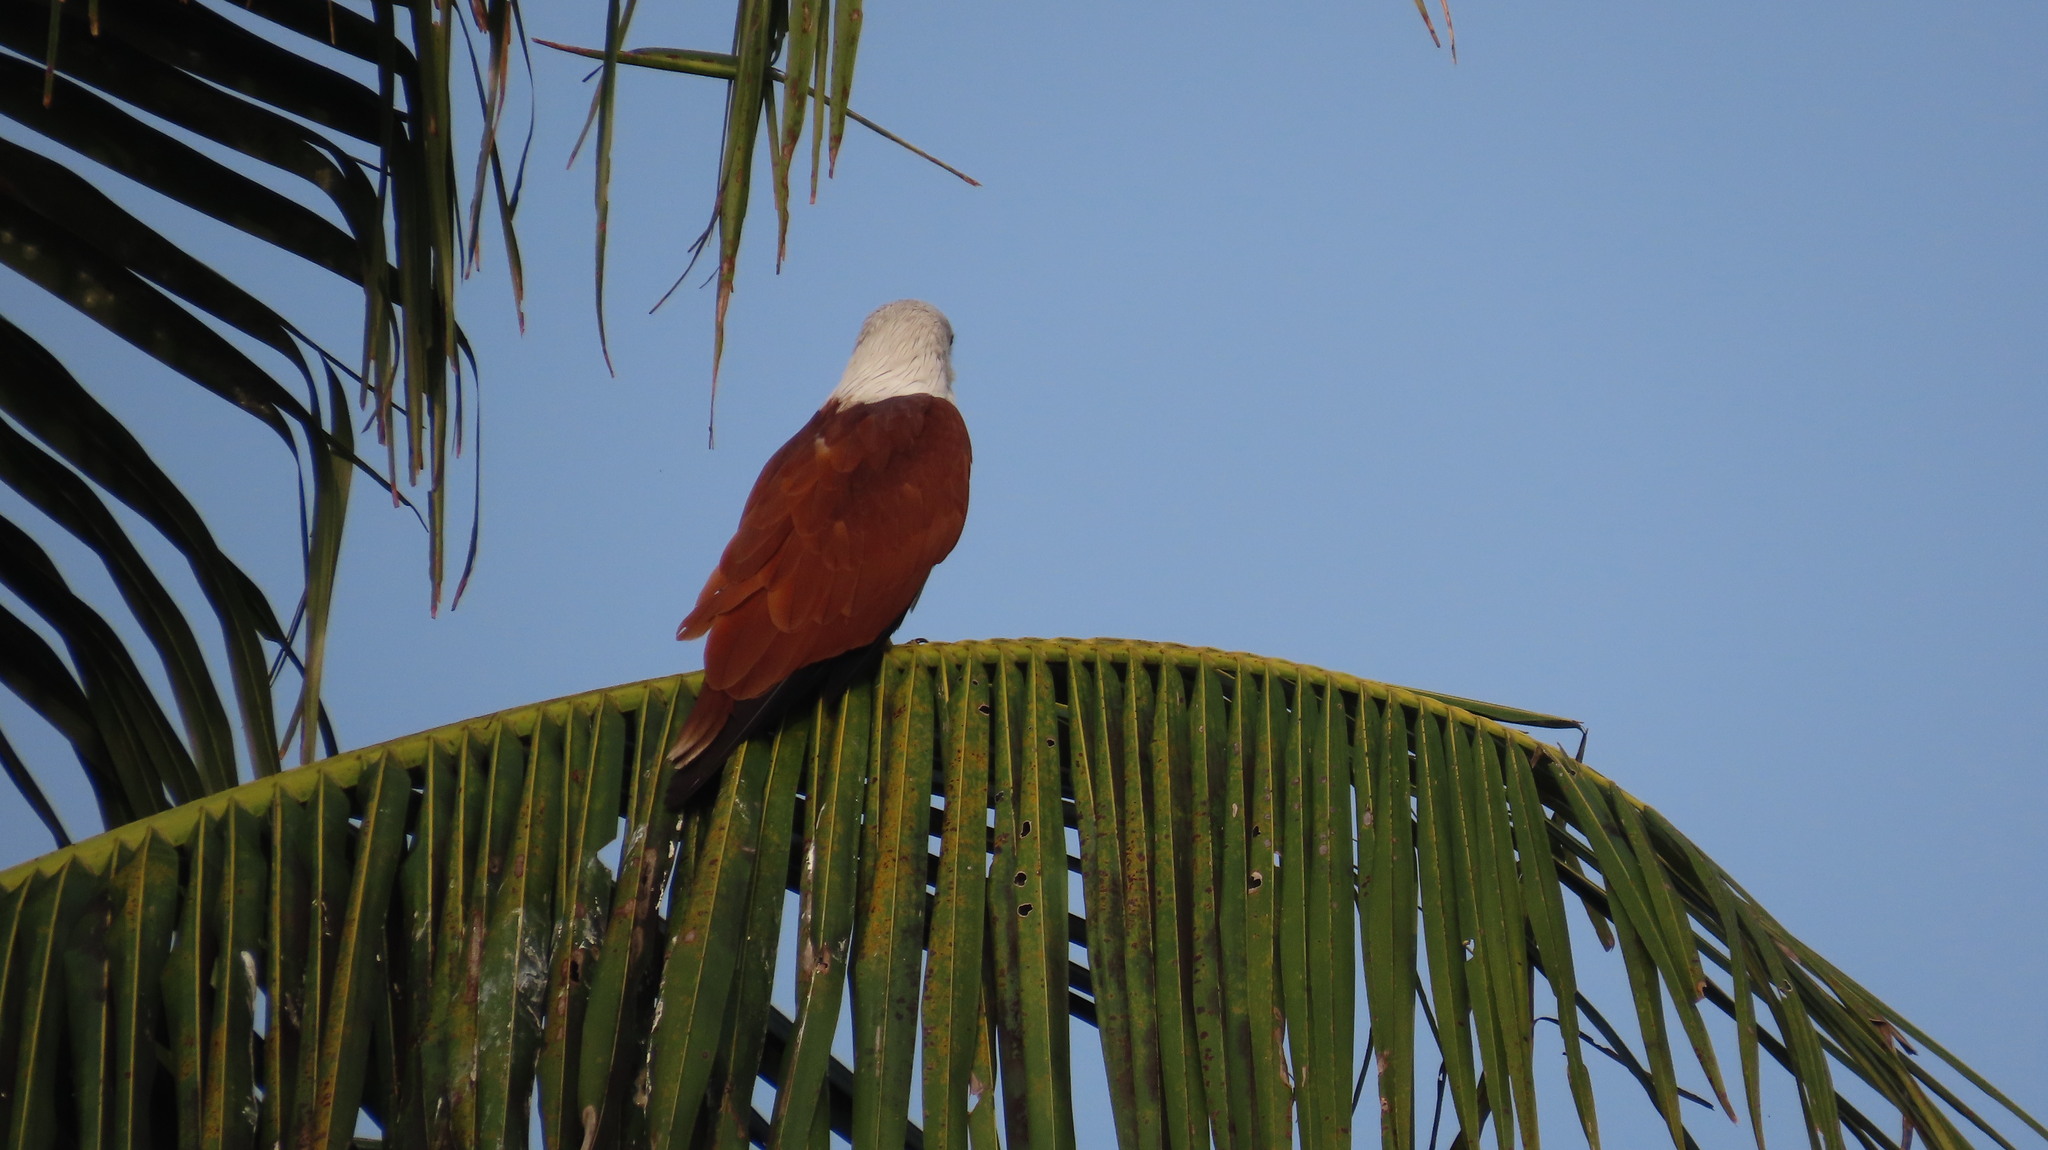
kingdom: Animalia
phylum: Chordata
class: Aves
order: Accipitriformes
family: Accipitridae
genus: Haliastur
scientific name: Haliastur indus
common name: Brahminy kite
